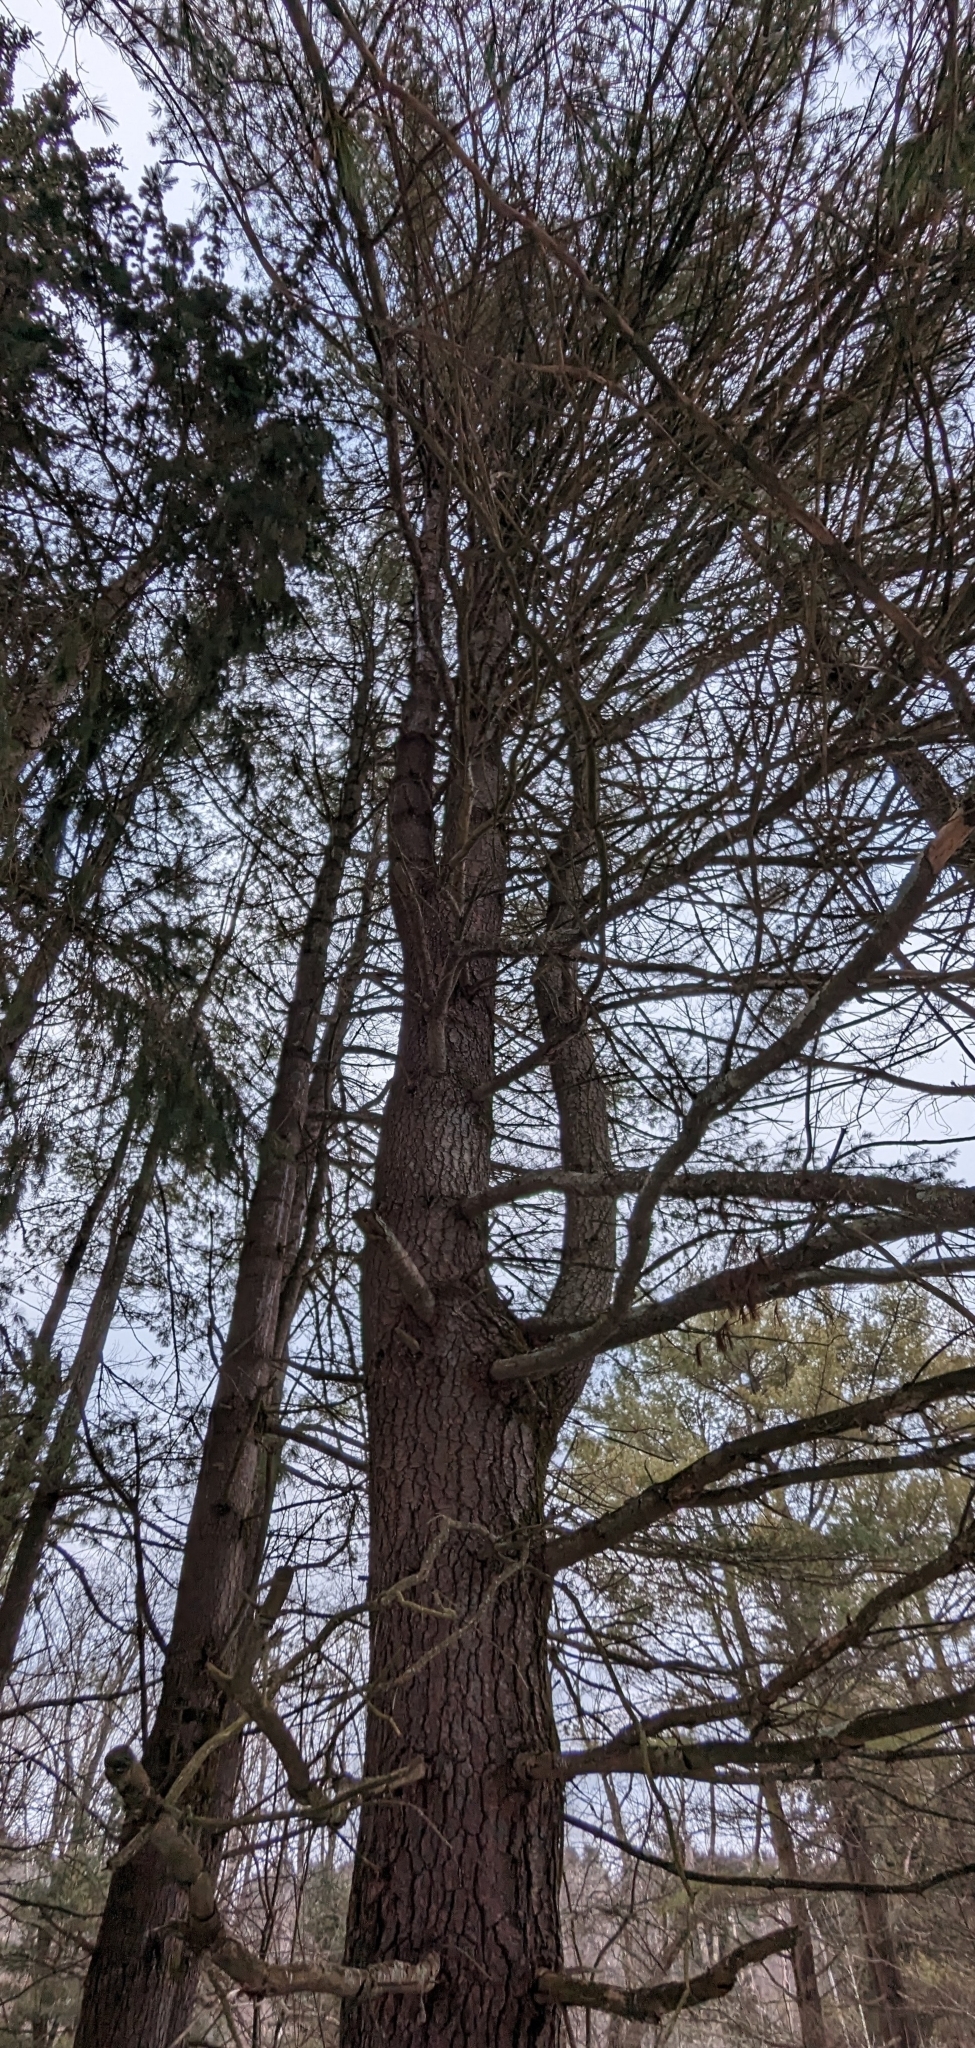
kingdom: Plantae
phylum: Tracheophyta
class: Pinopsida
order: Pinales
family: Pinaceae
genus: Pinus
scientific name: Pinus strobus
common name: Weymouth pine
